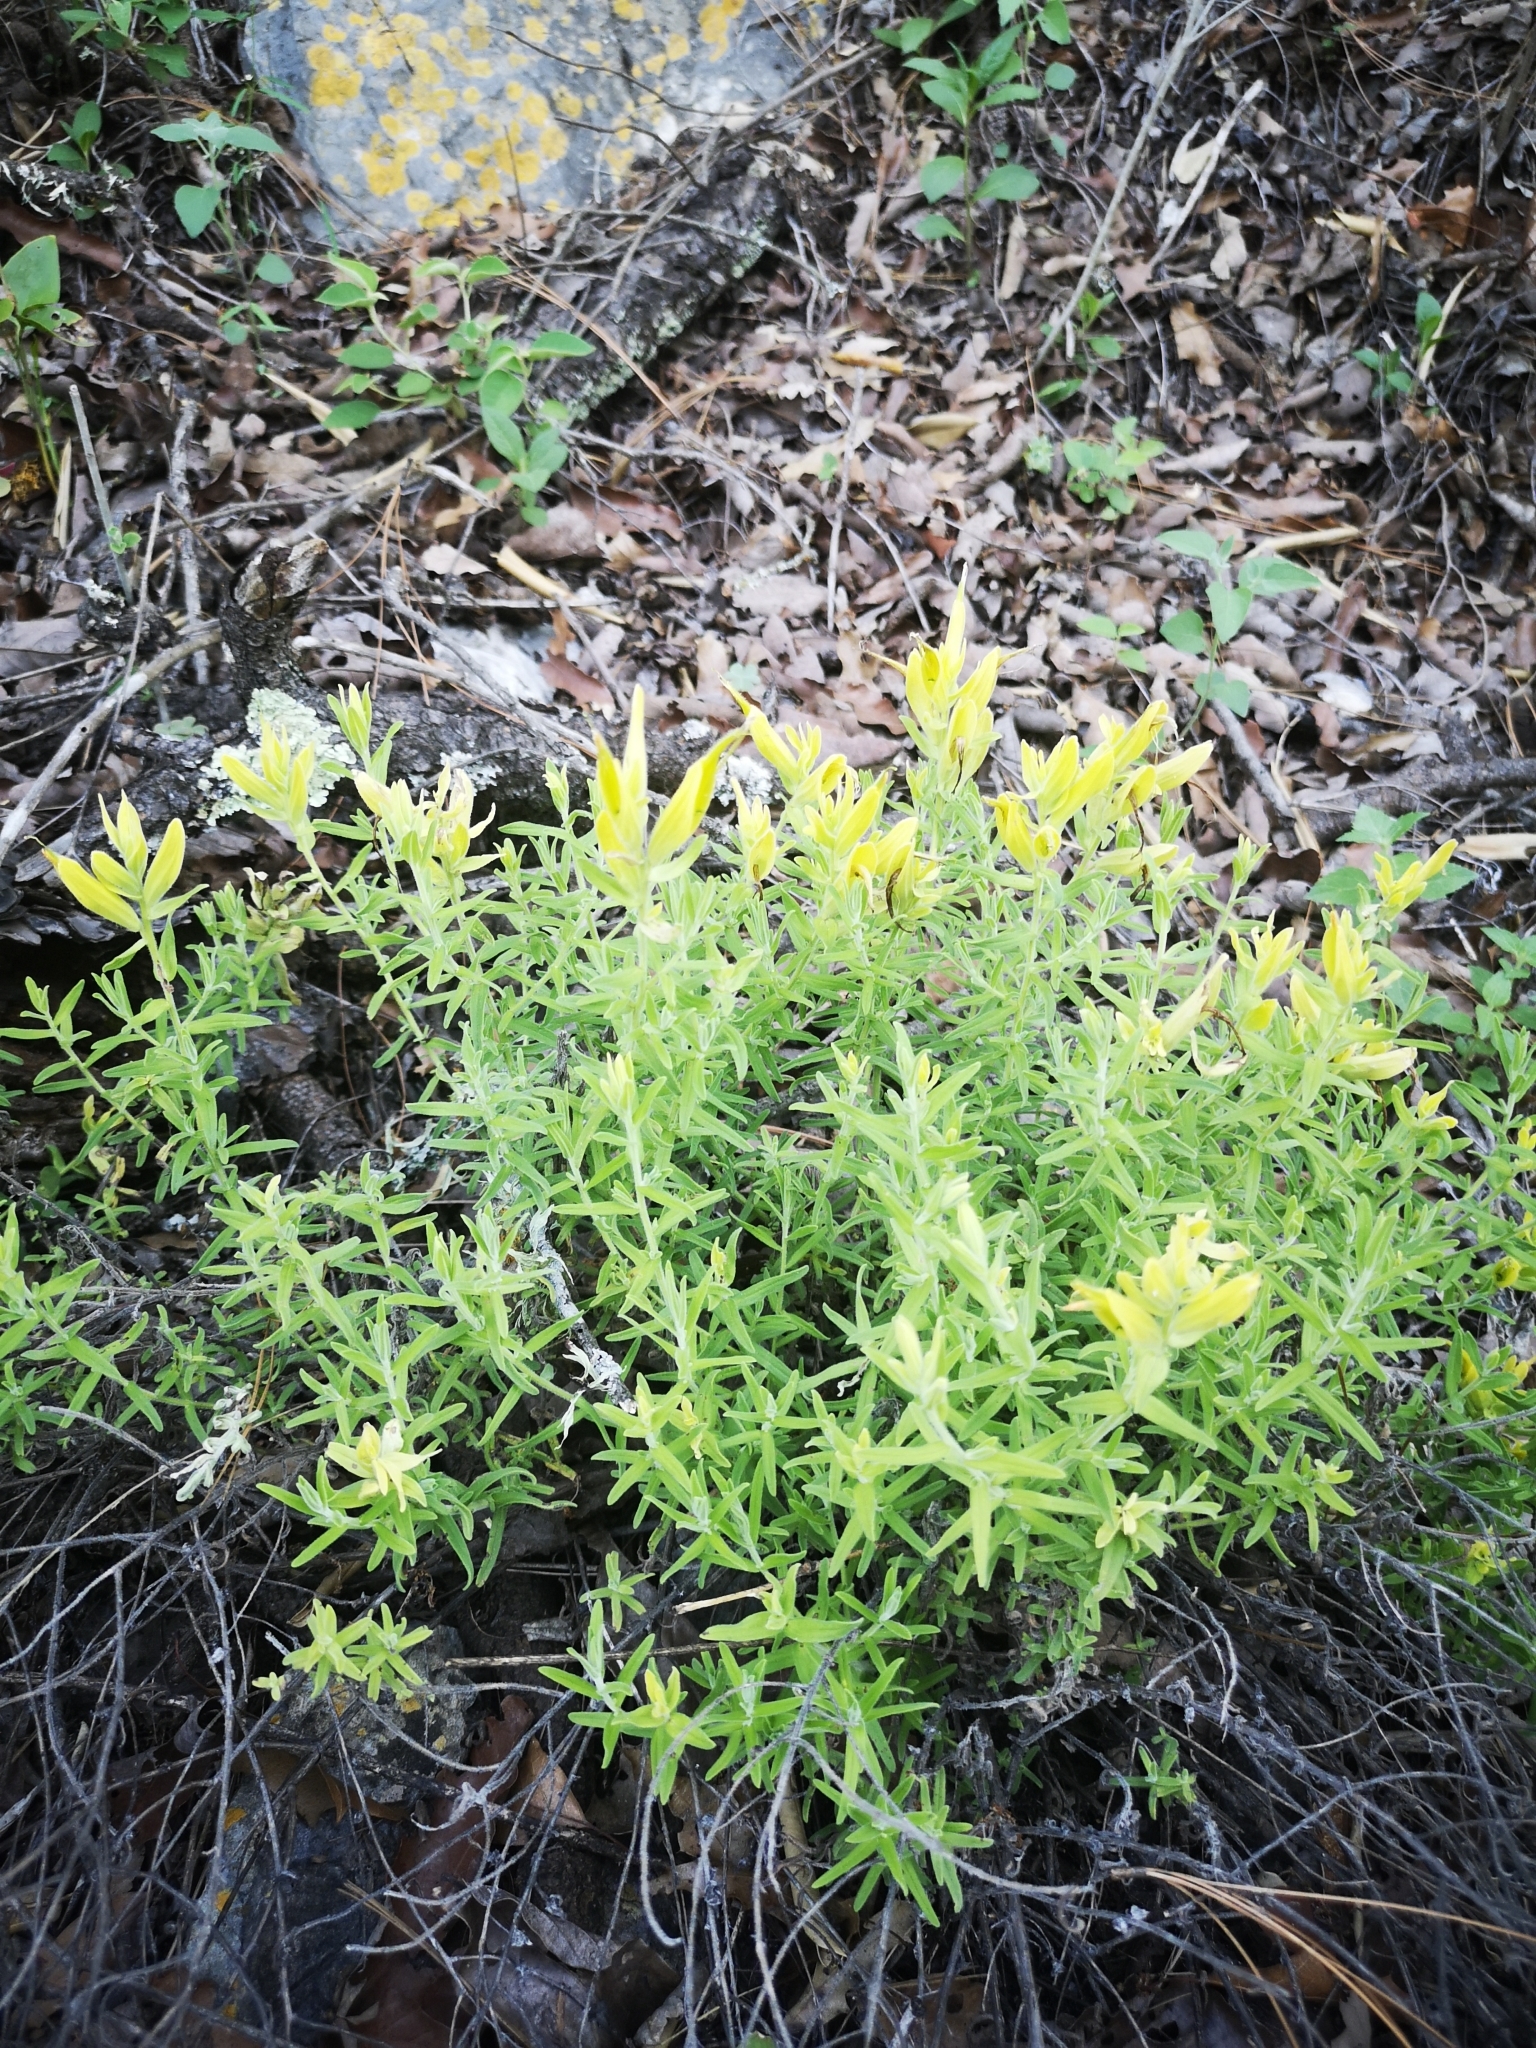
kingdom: Plantae
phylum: Tracheophyta
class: Magnoliopsida
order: Lamiales
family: Orobanchaceae
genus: Castilleja
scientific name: Castilleja tenuiflora
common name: Santa catalina indian paintbrush
